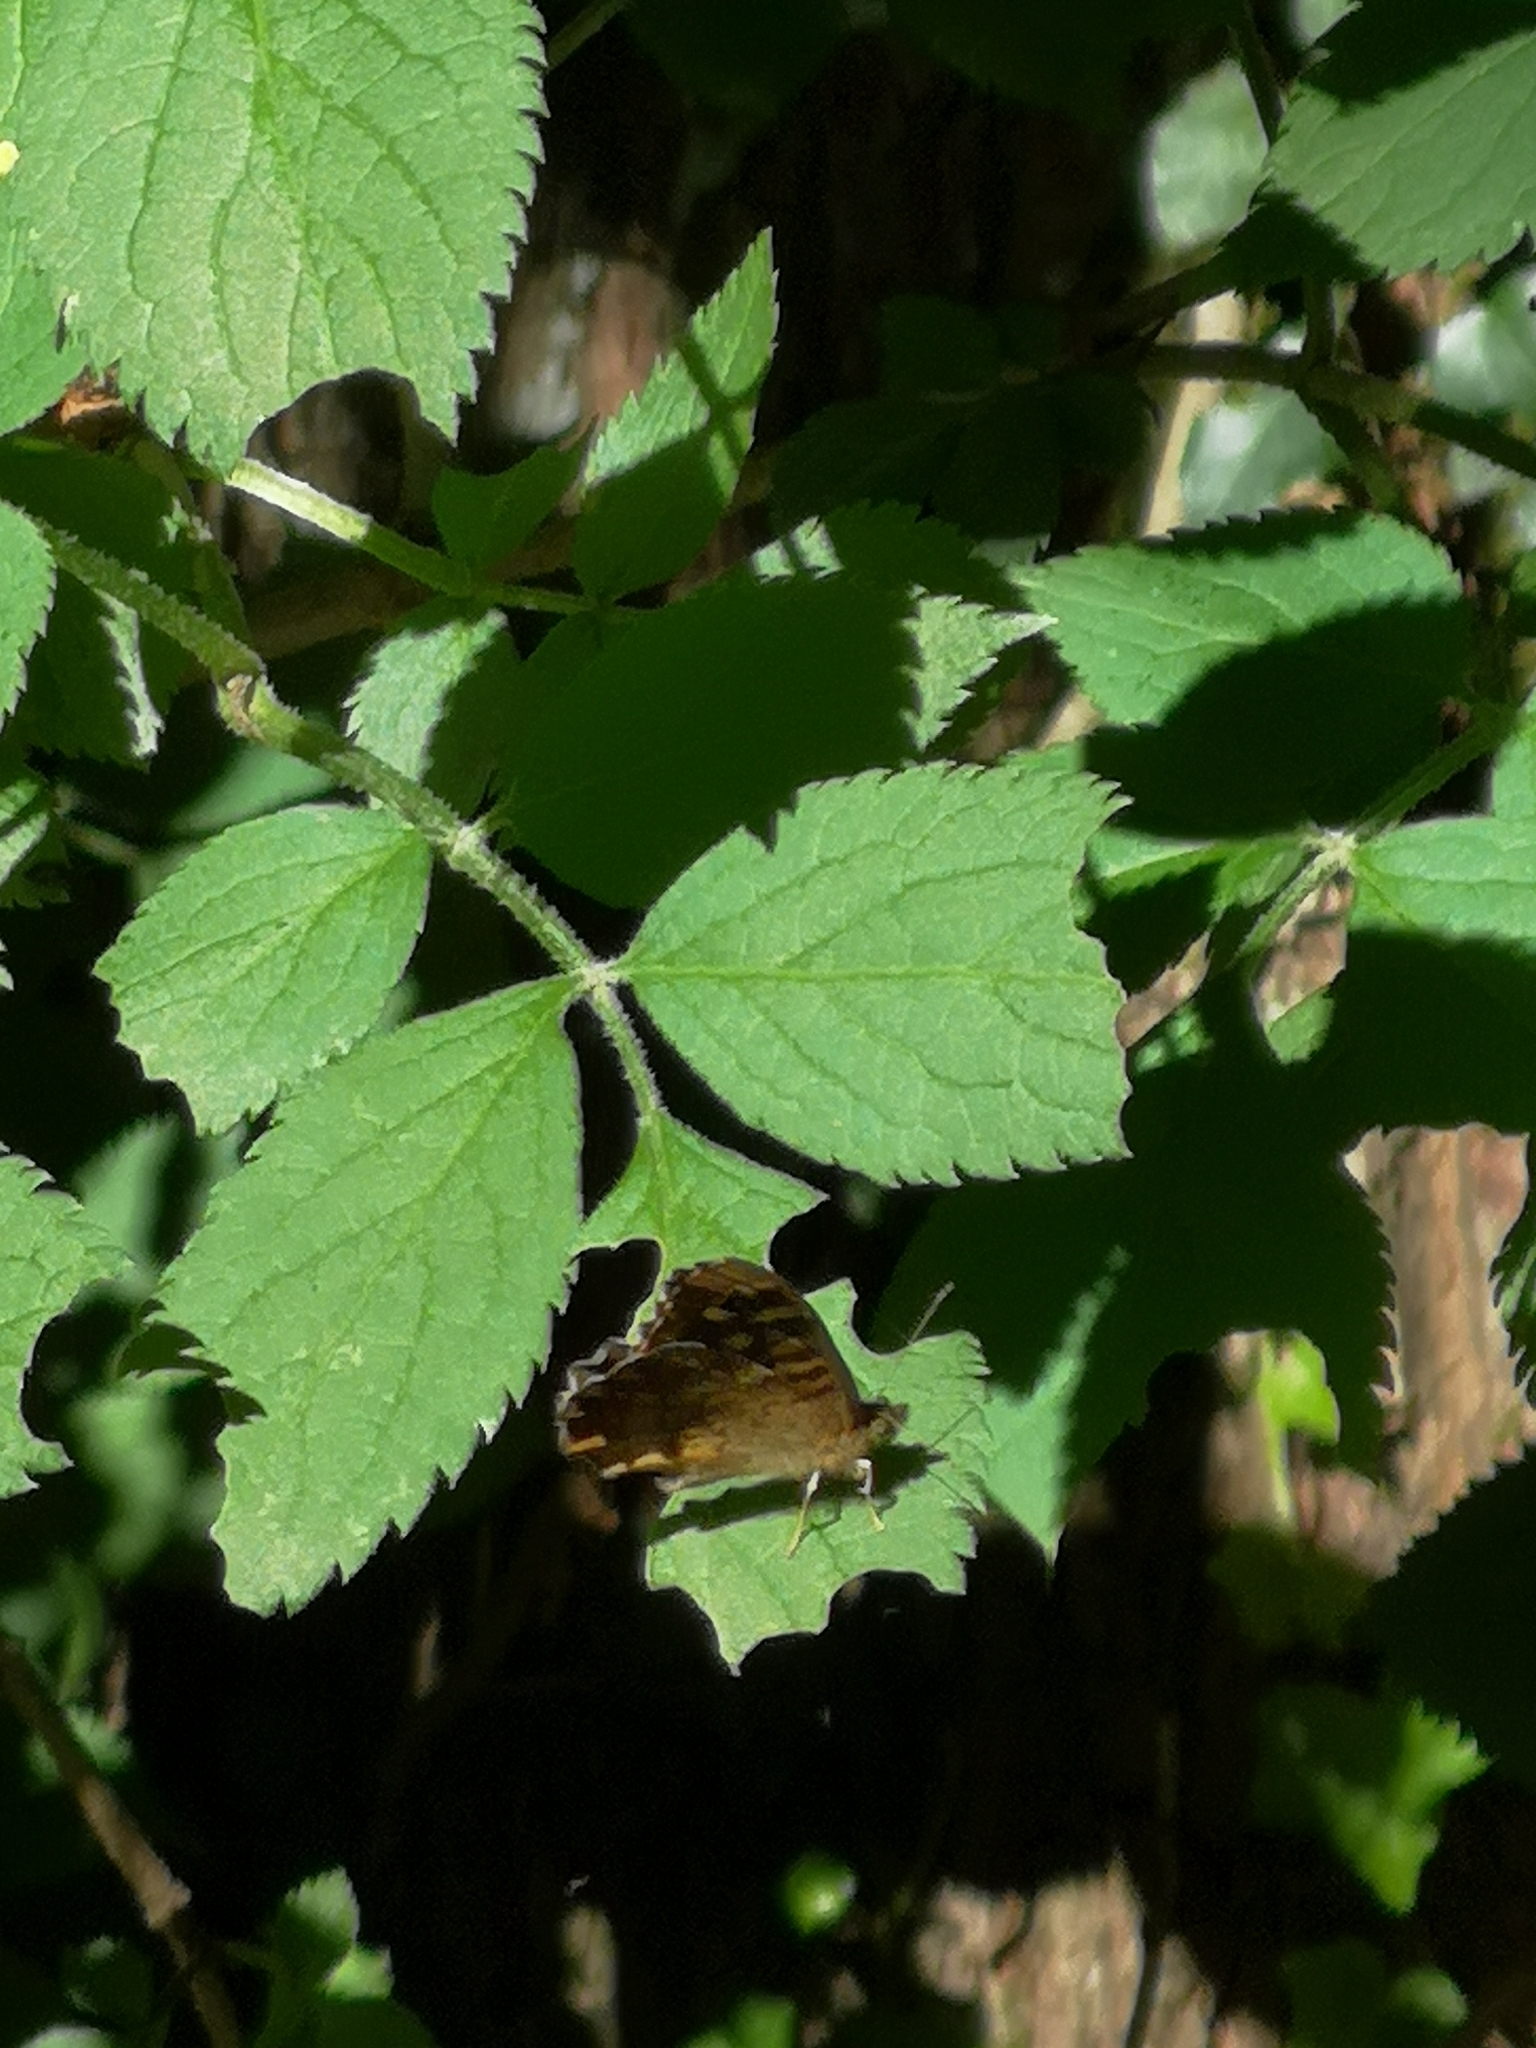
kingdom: Animalia
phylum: Arthropoda
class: Insecta
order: Lepidoptera
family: Nymphalidae
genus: Pararge
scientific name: Pararge aegeria
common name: Speckled wood
